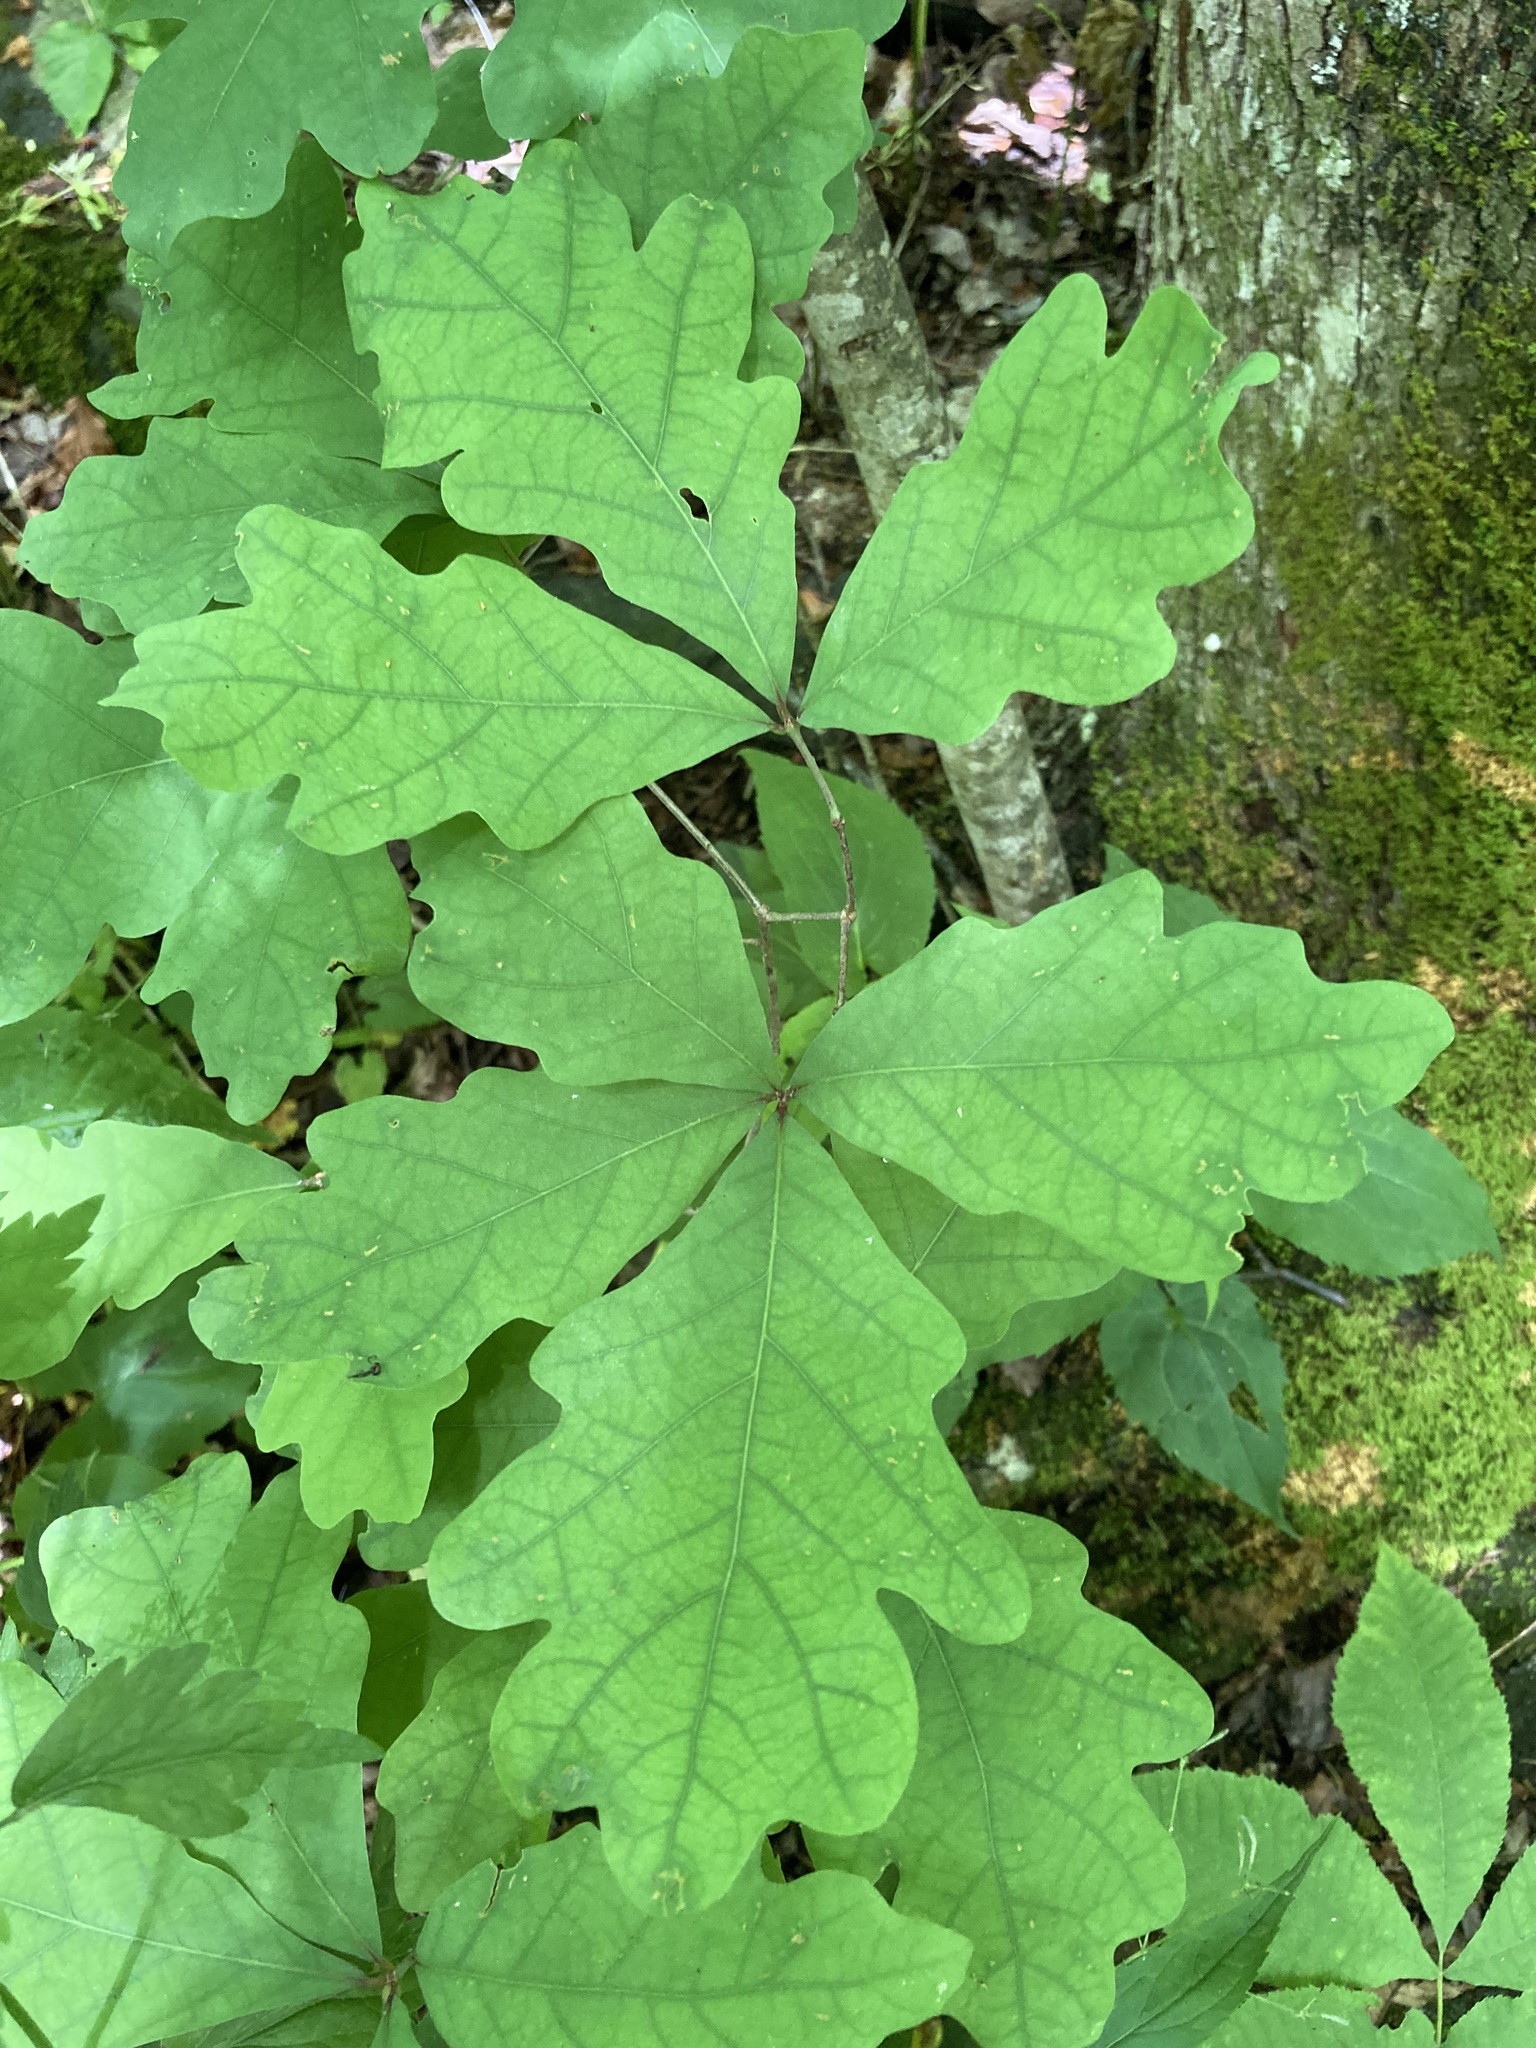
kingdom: Plantae
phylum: Tracheophyta
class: Magnoliopsida
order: Fagales
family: Fagaceae
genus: Quercus
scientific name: Quercus alba
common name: White oak
